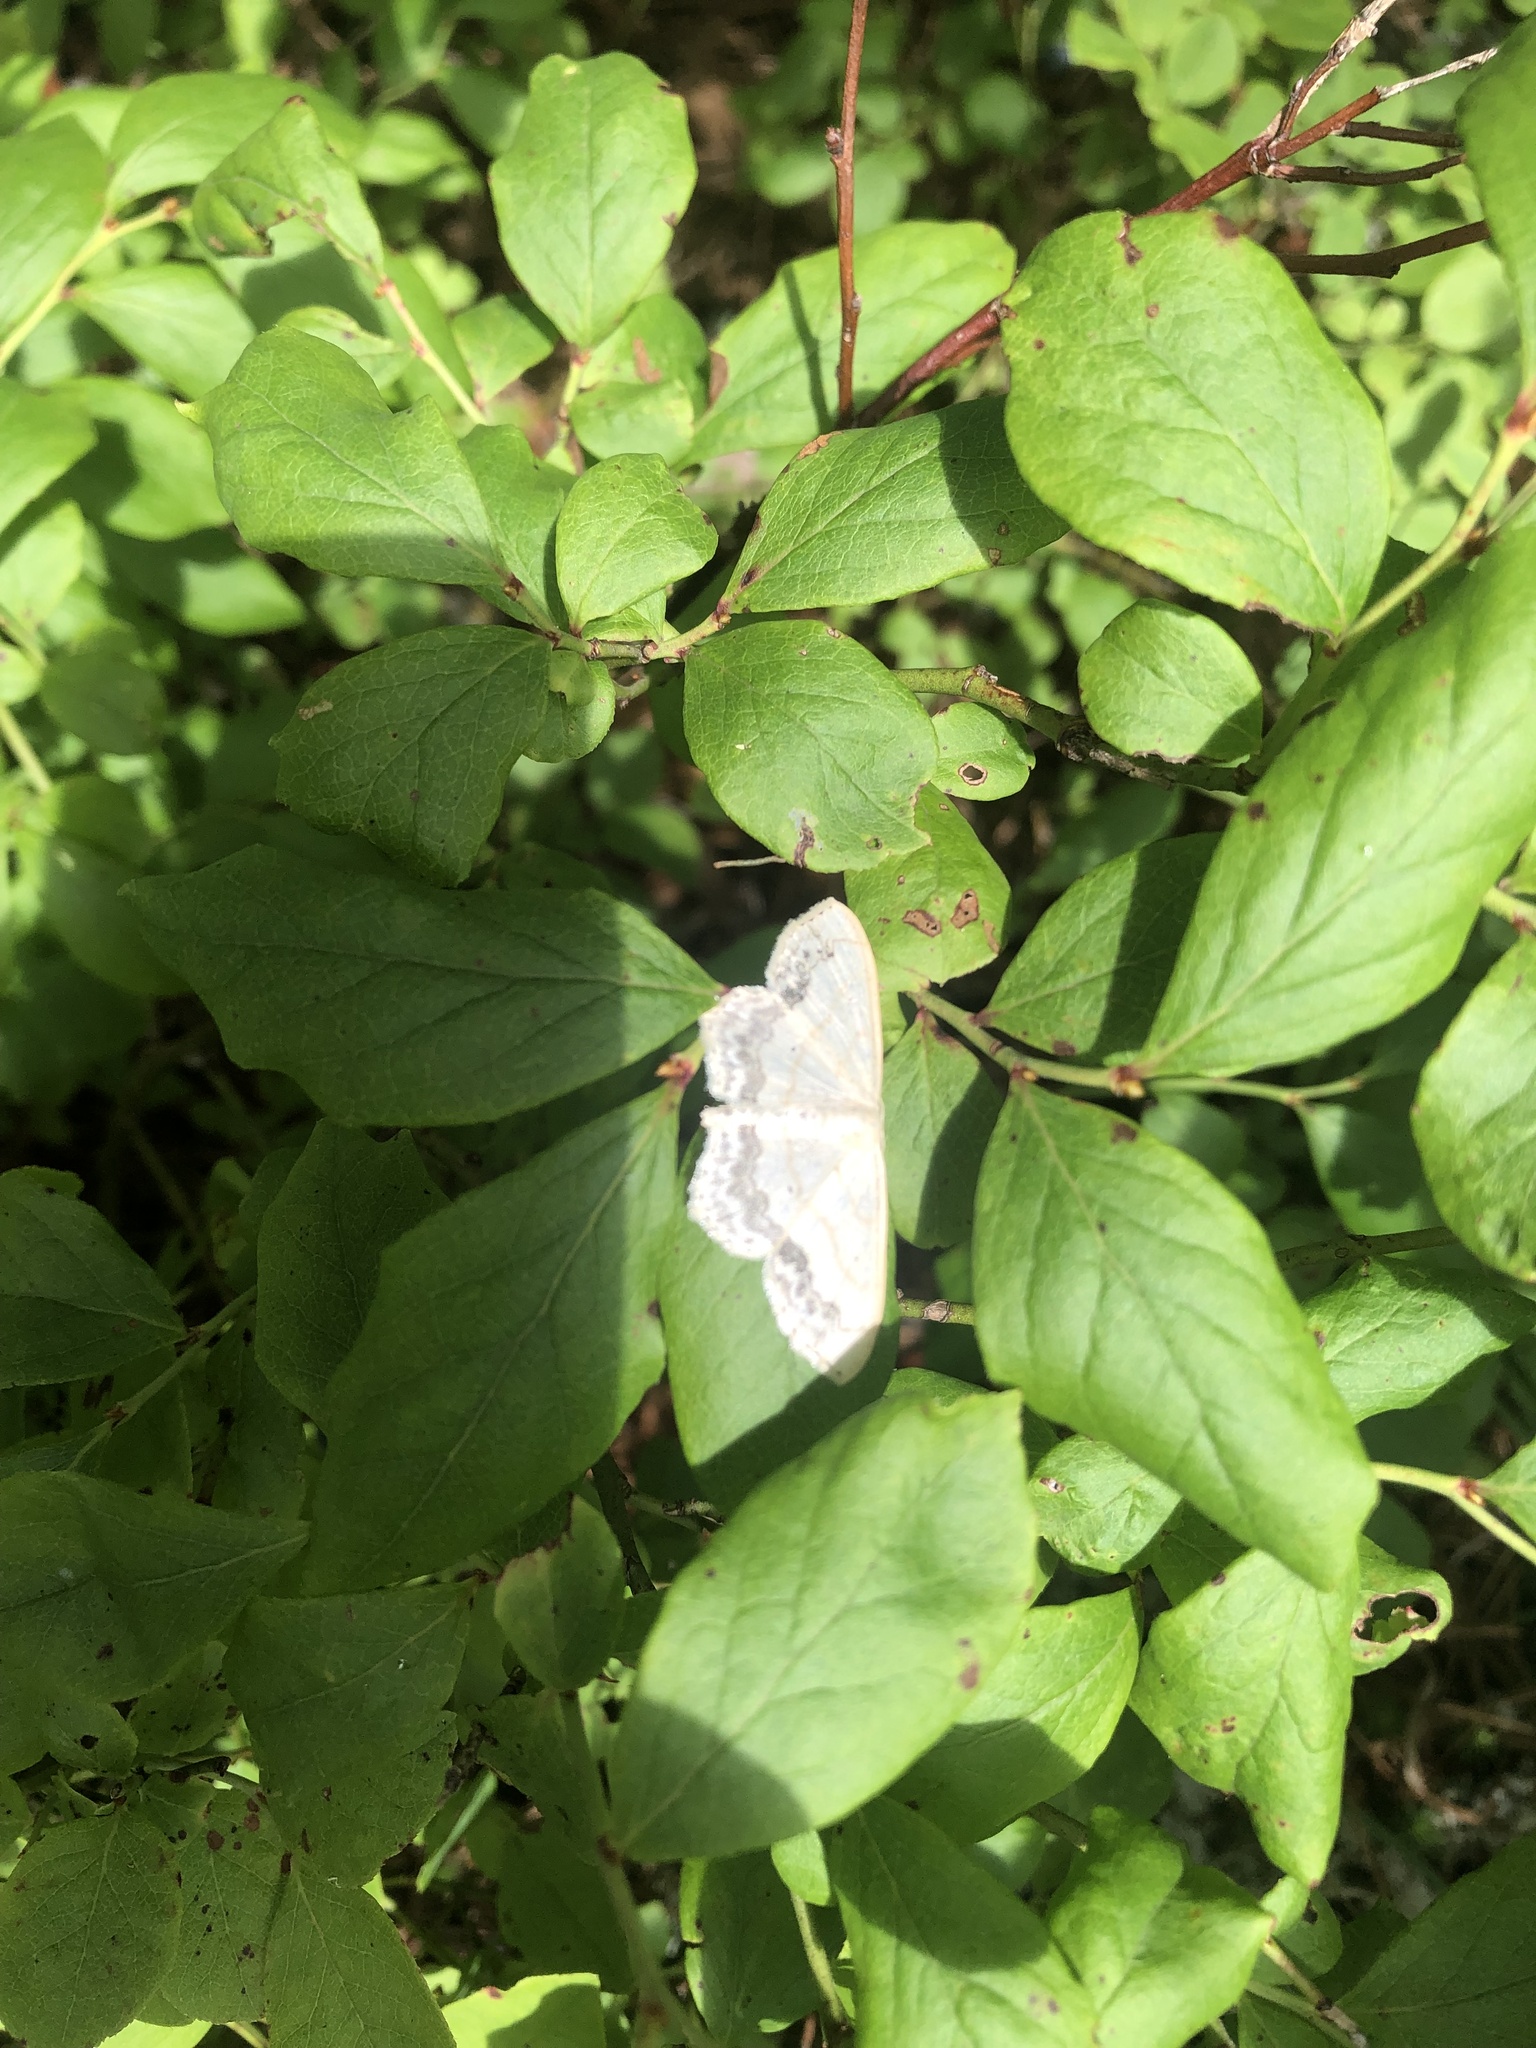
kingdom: Animalia
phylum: Arthropoda
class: Insecta
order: Lepidoptera
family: Geometridae
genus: Scopula
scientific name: Scopula limboundata
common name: Large lace border
